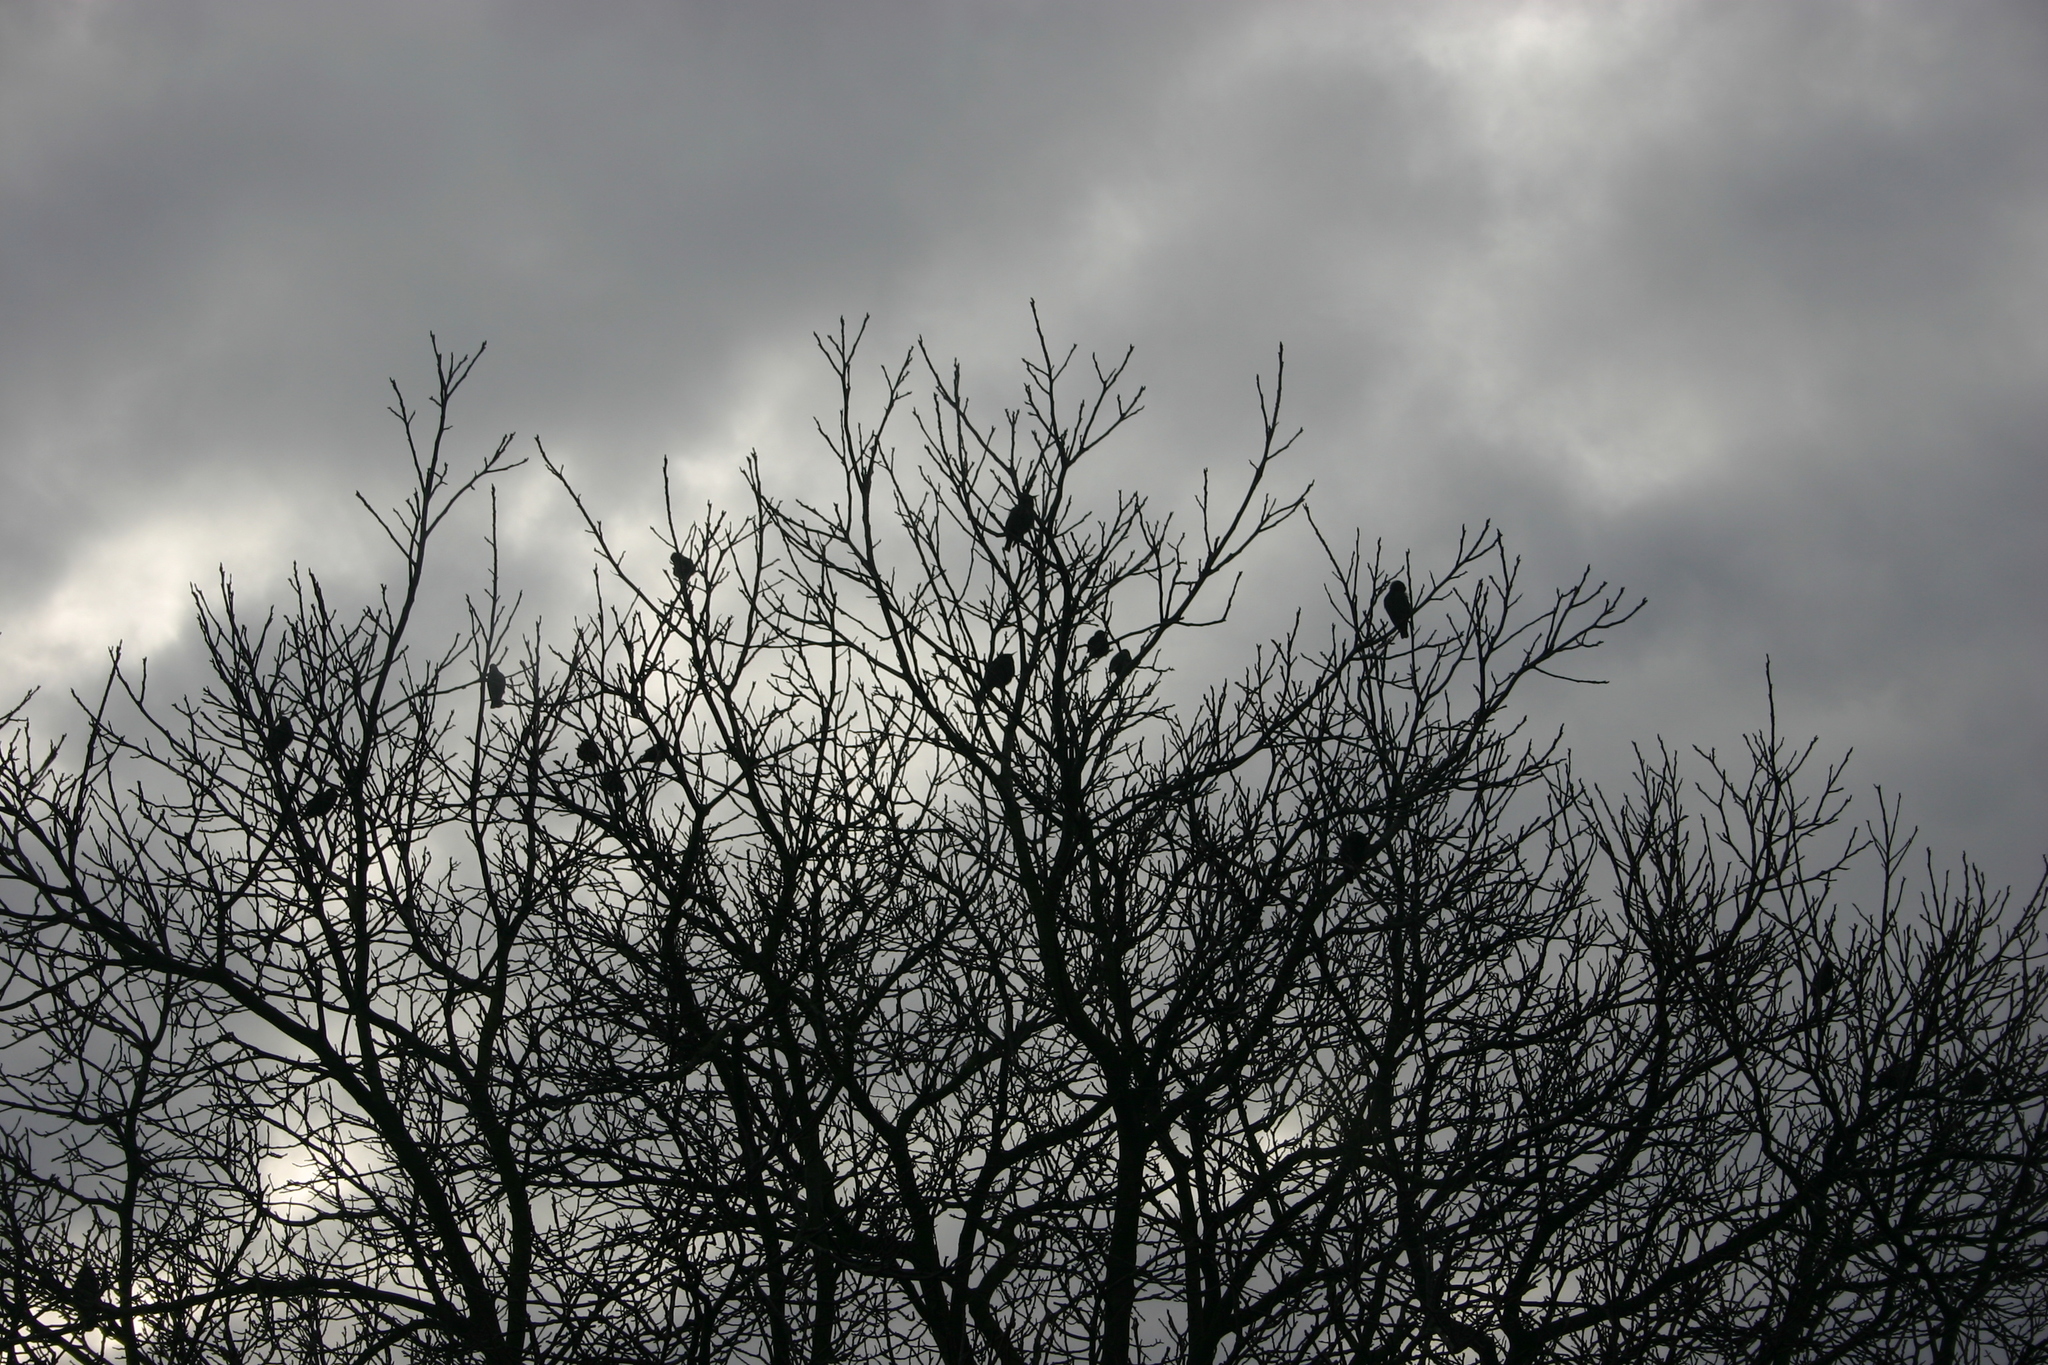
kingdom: Animalia
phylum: Chordata
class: Aves
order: Passeriformes
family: Sturnidae
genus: Sturnus
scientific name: Sturnus vulgaris
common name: Common starling
